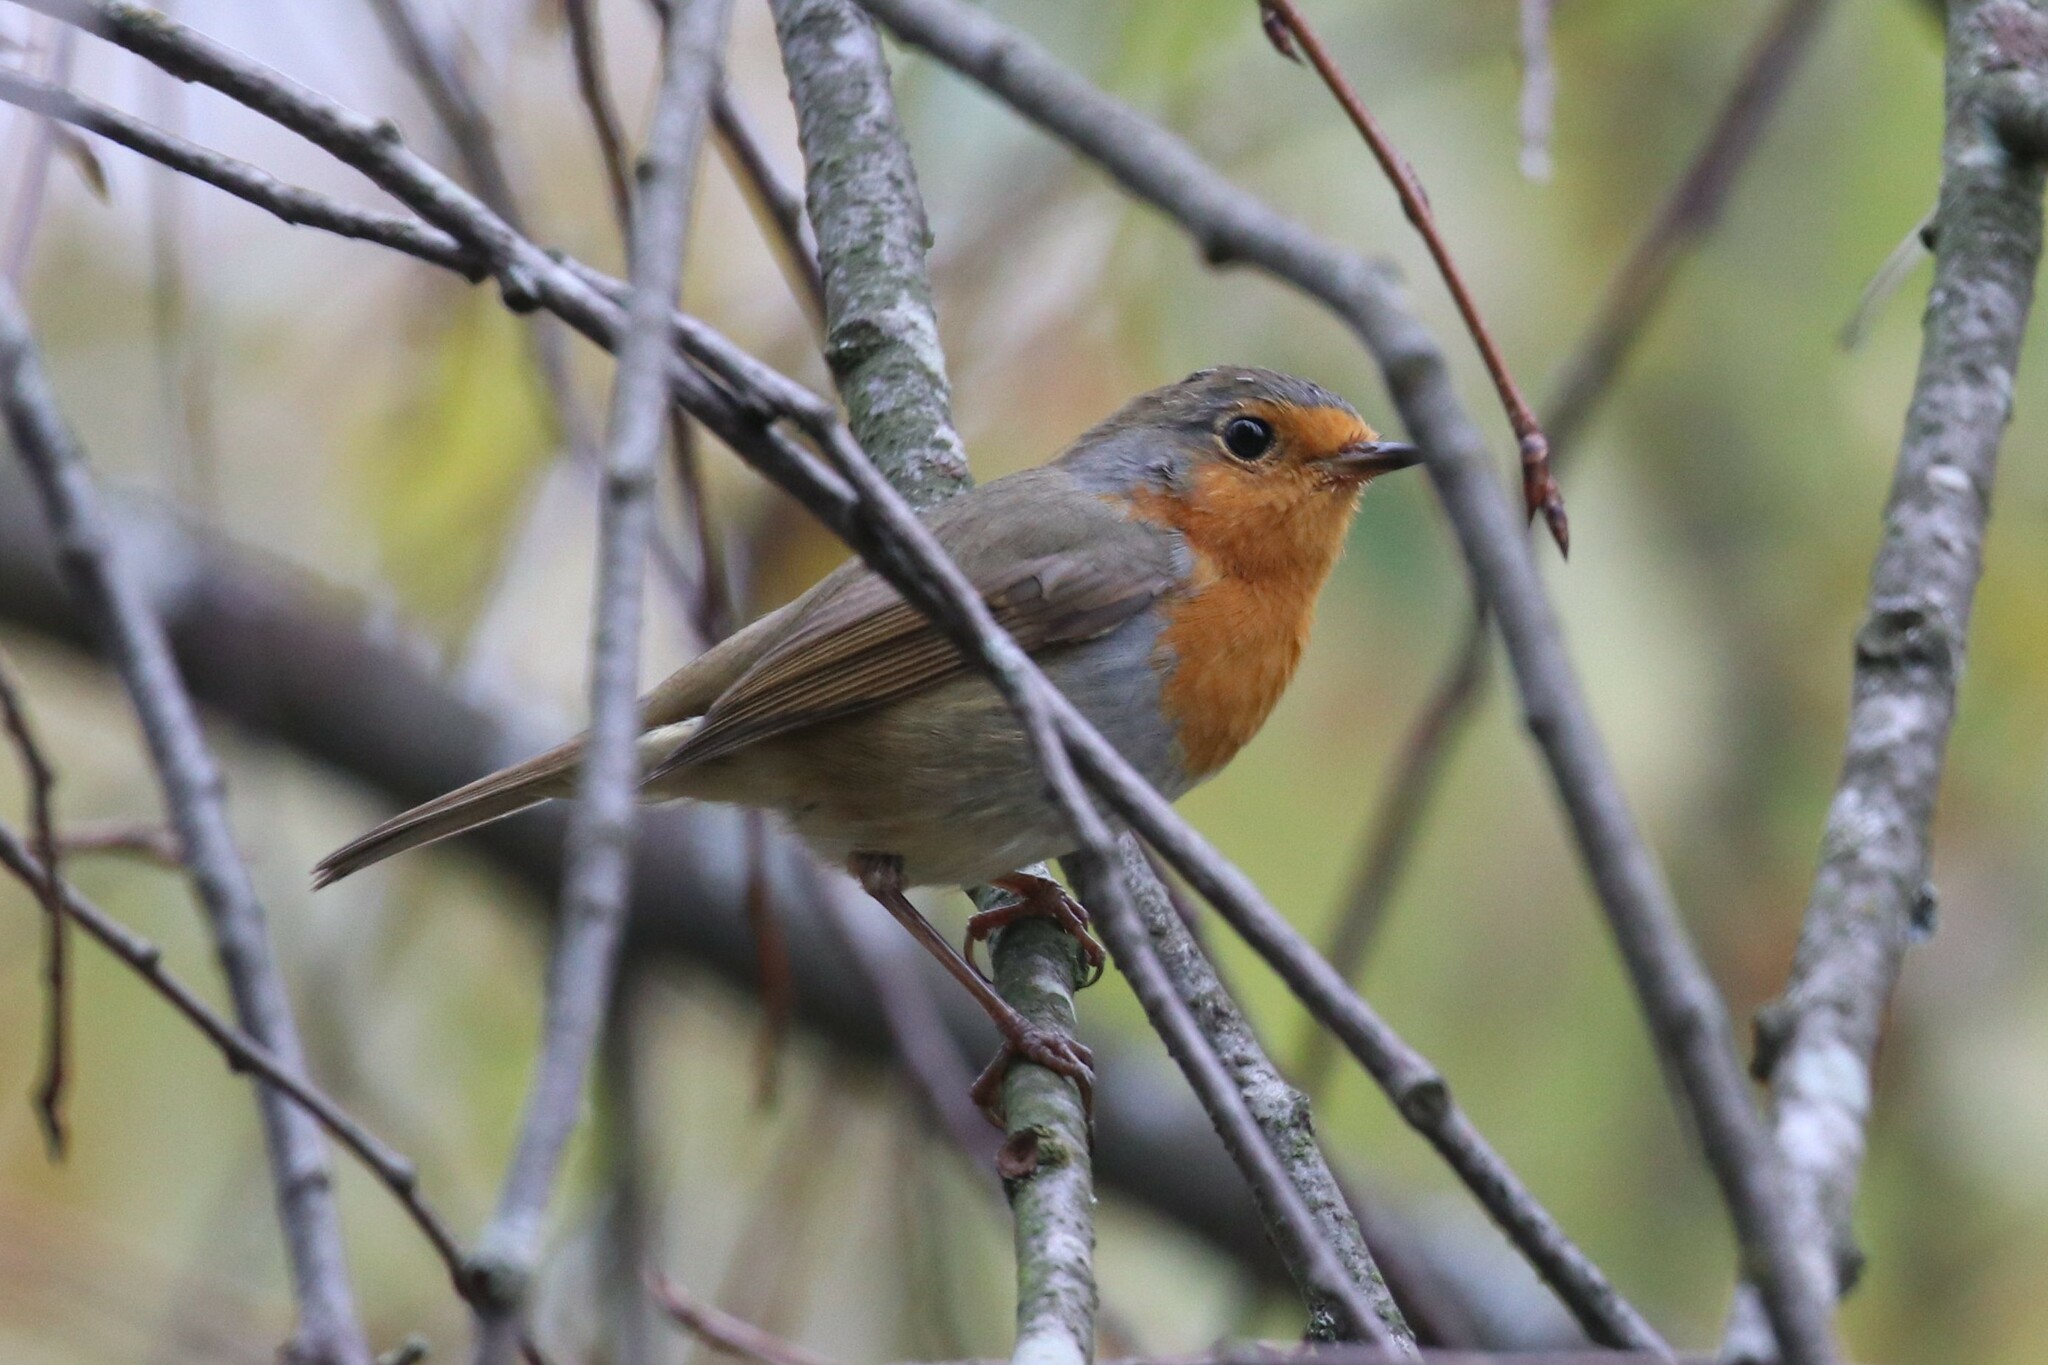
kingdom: Animalia
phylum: Chordata
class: Aves
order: Passeriformes
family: Muscicapidae
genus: Erithacus
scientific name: Erithacus rubecula
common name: European robin
